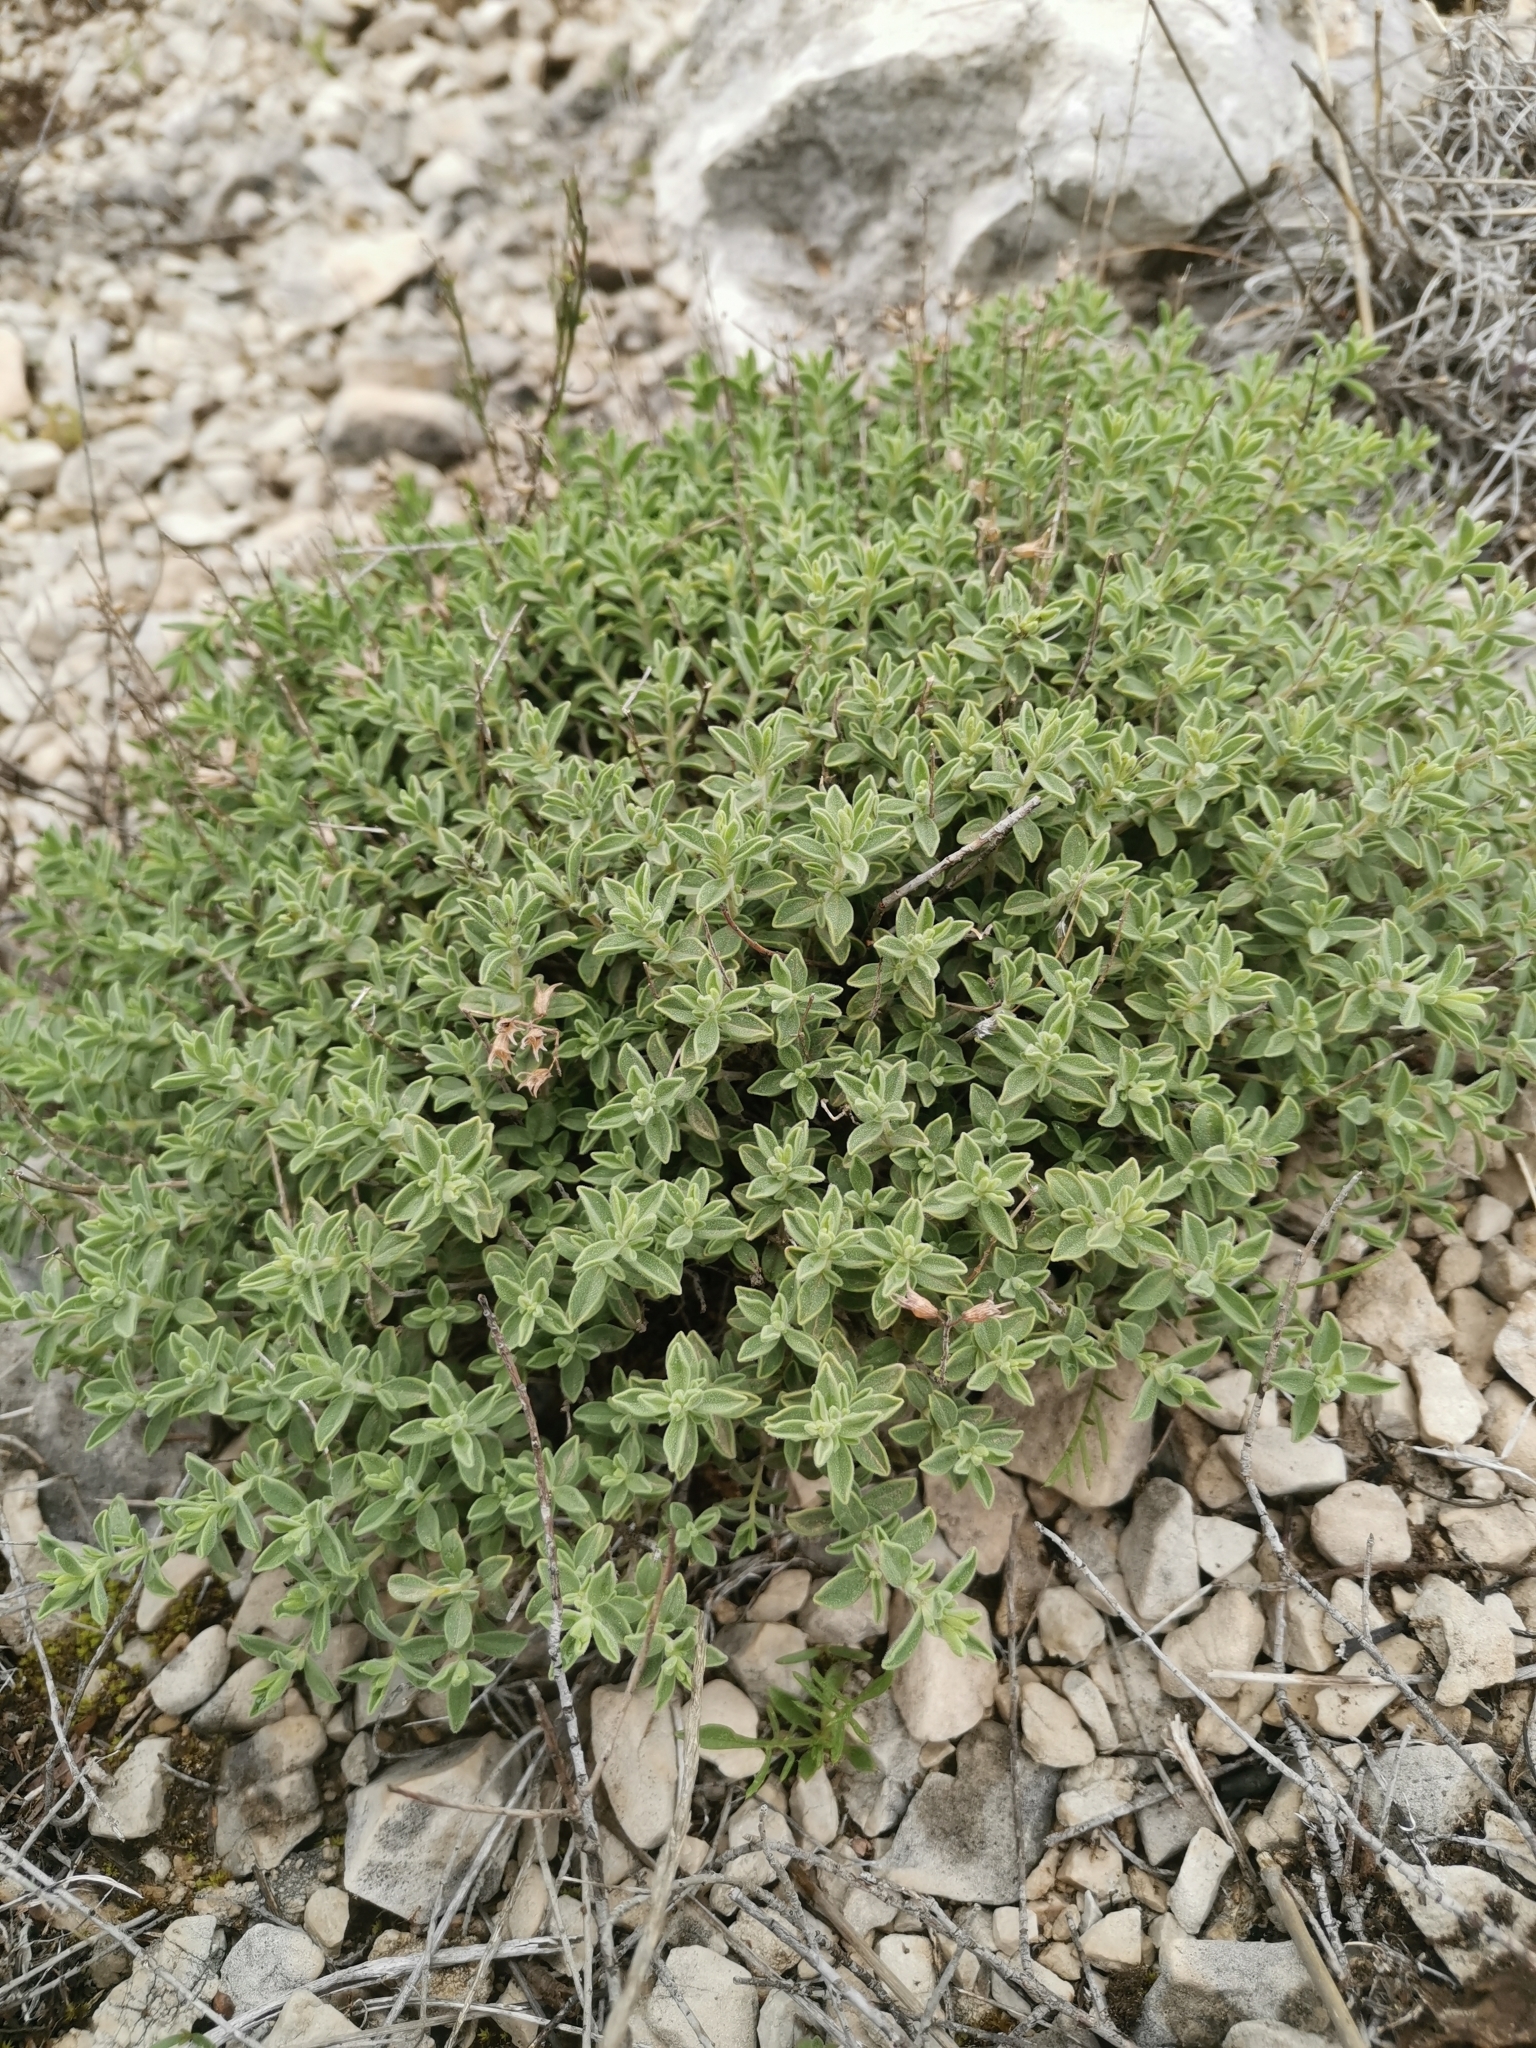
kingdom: Plantae
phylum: Tracheophyta
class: Magnoliopsida
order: Lamiales
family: Lamiaceae
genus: Satureja
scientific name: Satureja visianii
